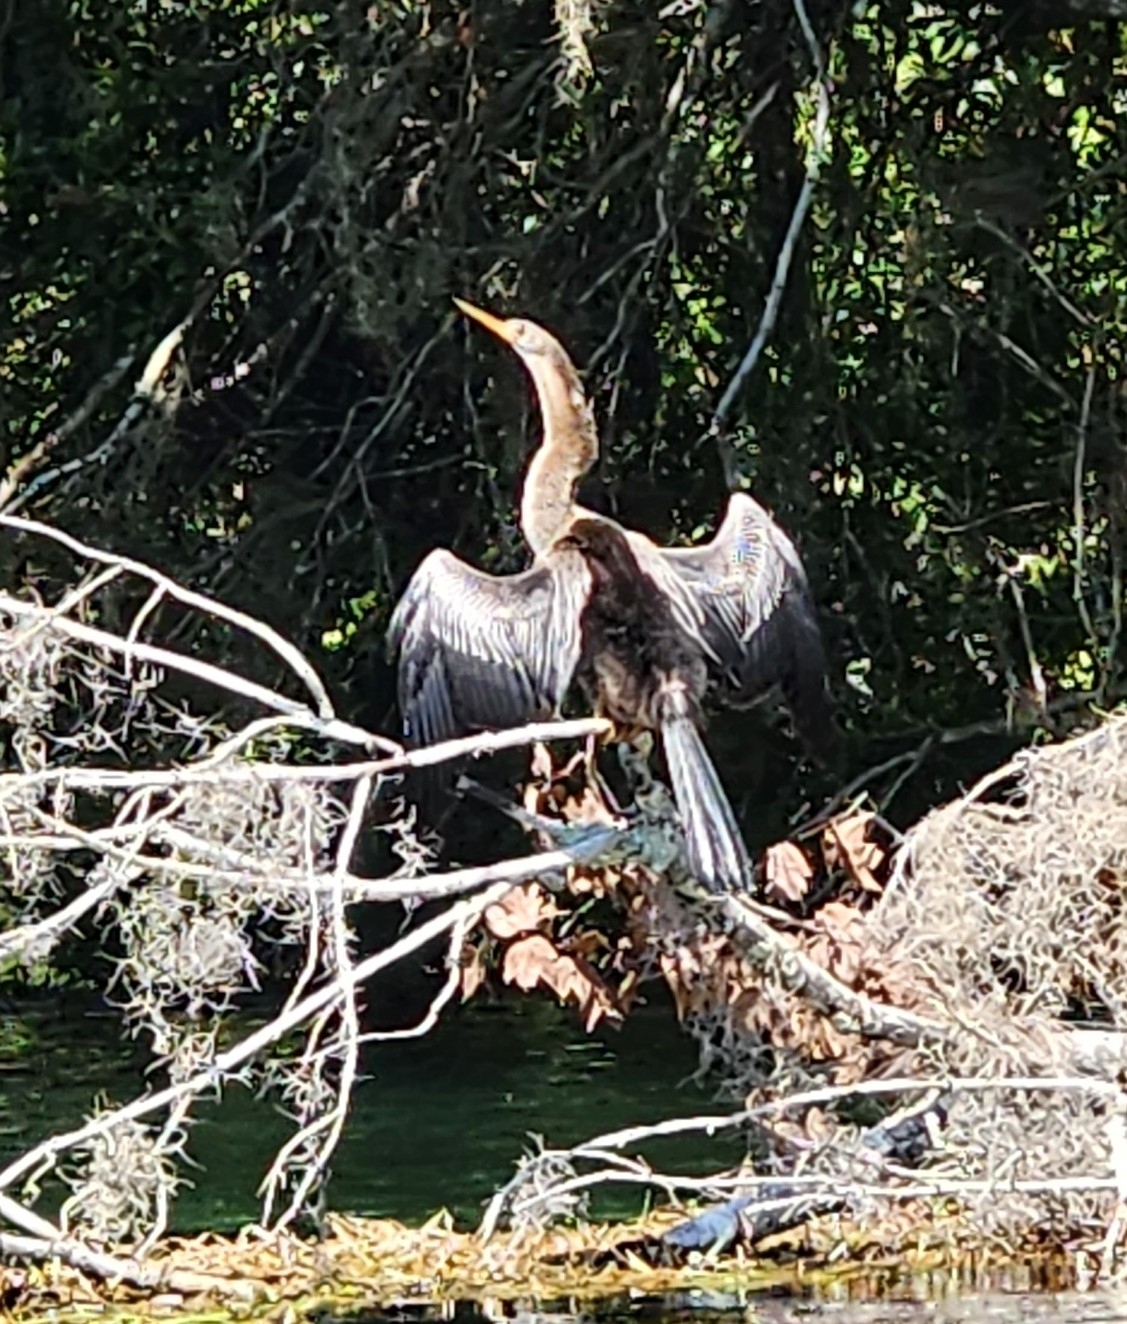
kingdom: Animalia
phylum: Chordata
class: Aves
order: Suliformes
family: Anhingidae
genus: Anhinga
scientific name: Anhinga anhinga
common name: Anhinga
